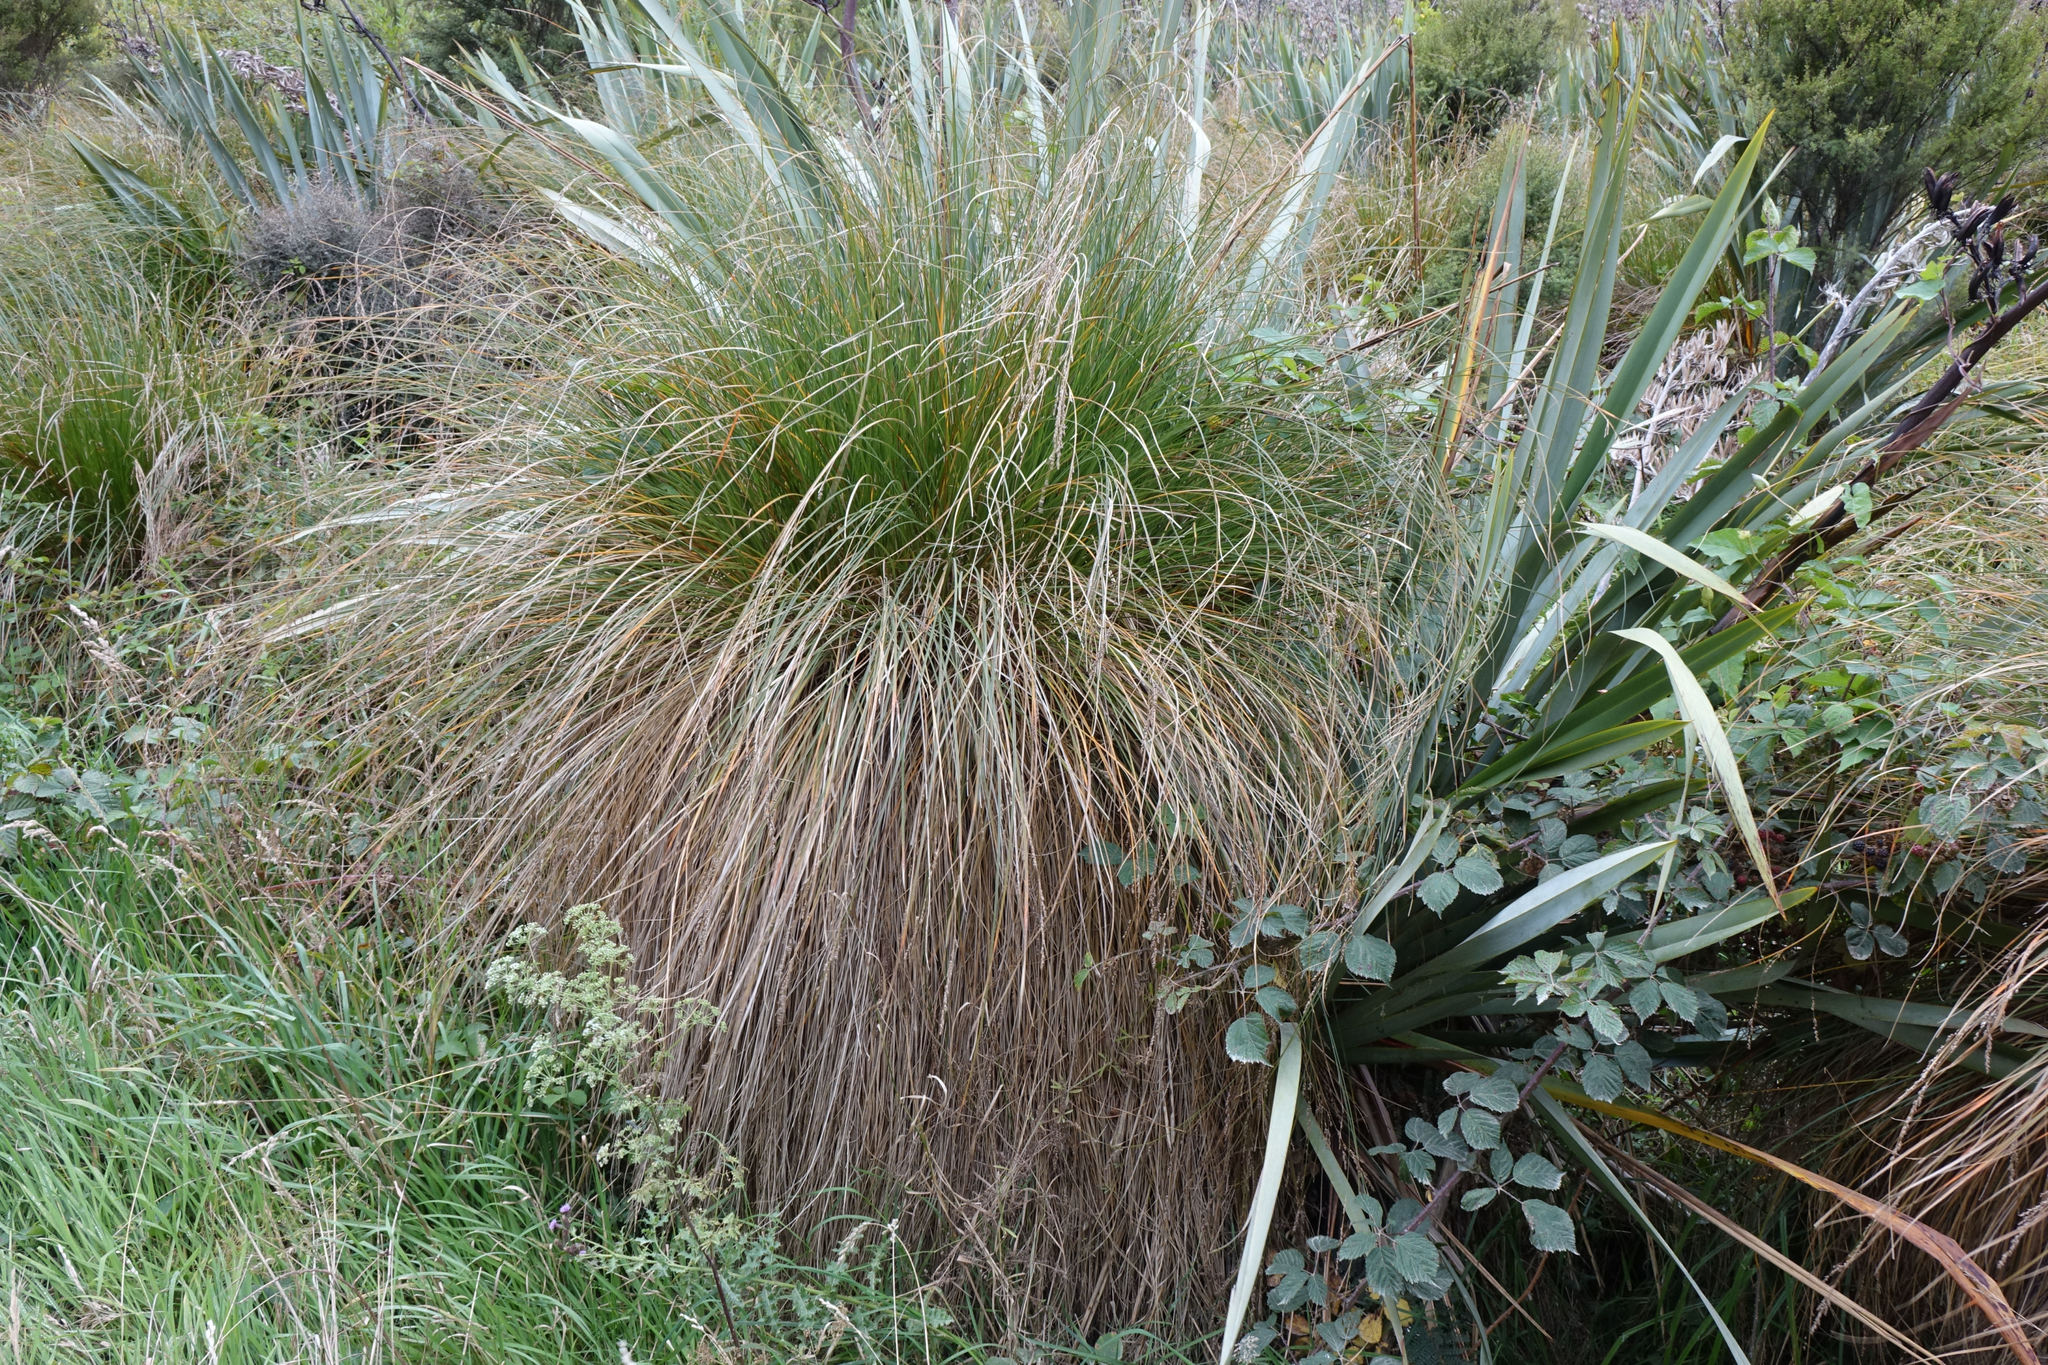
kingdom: Plantae
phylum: Tracheophyta
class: Liliopsida
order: Poales
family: Cyperaceae
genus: Carex
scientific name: Carex secta
